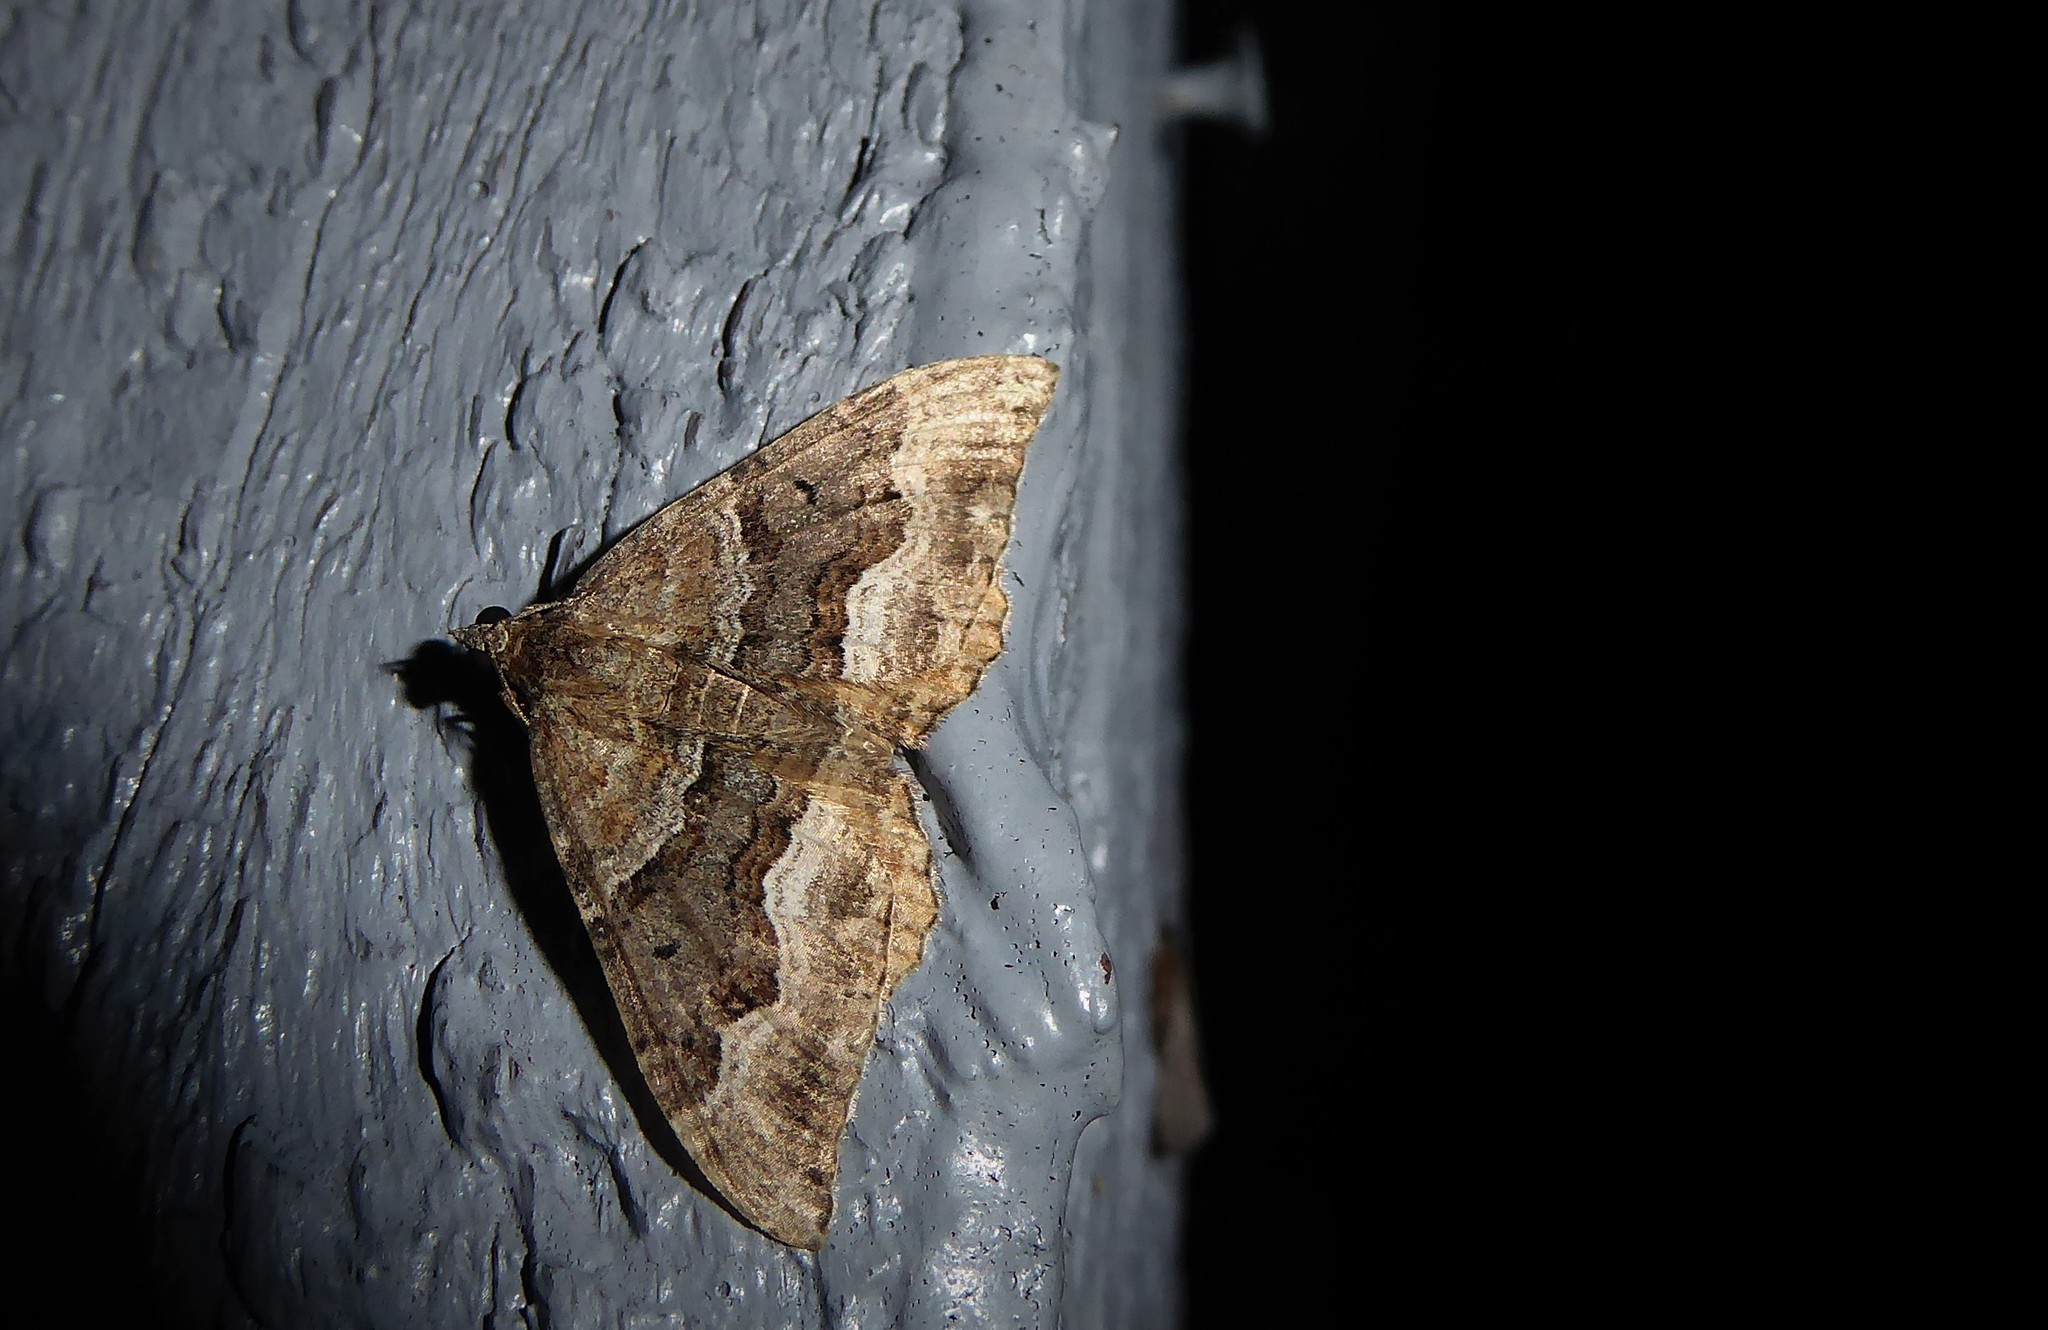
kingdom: Animalia
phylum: Arthropoda
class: Insecta
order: Lepidoptera
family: Geometridae
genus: Hydriomena
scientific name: Hydriomena deltoidata
